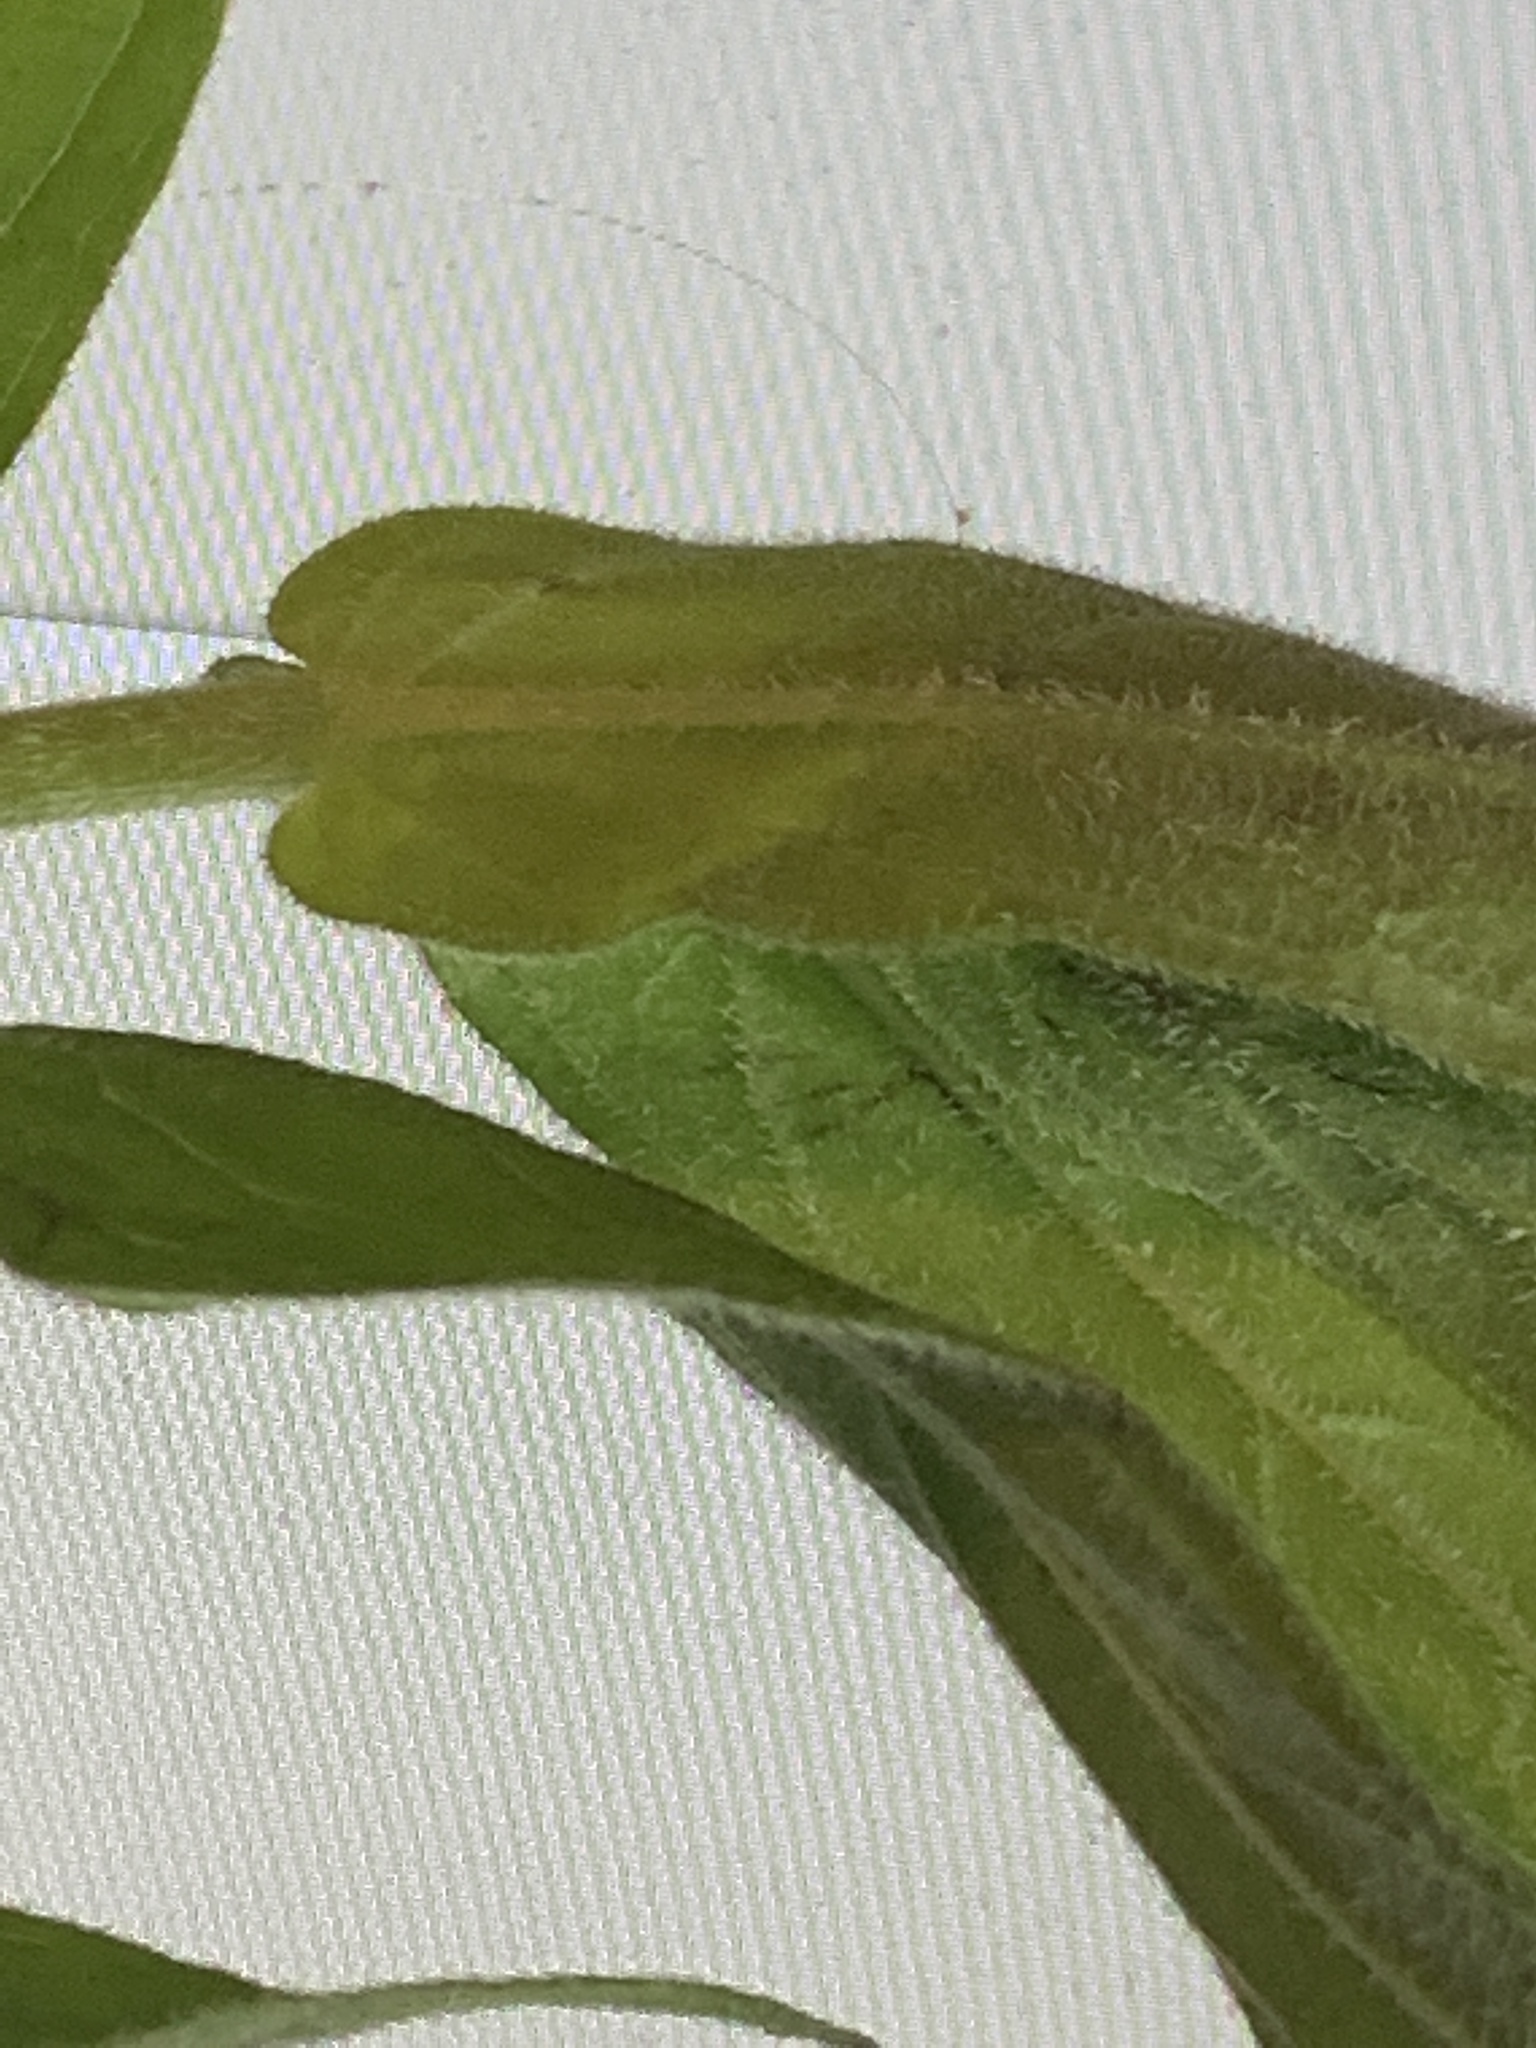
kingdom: Plantae
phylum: Tracheophyta
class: Magnoliopsida
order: Myrtales
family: Lythraceae
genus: Lythrum
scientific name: Lythrum salicaria
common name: Purple loosestrife
